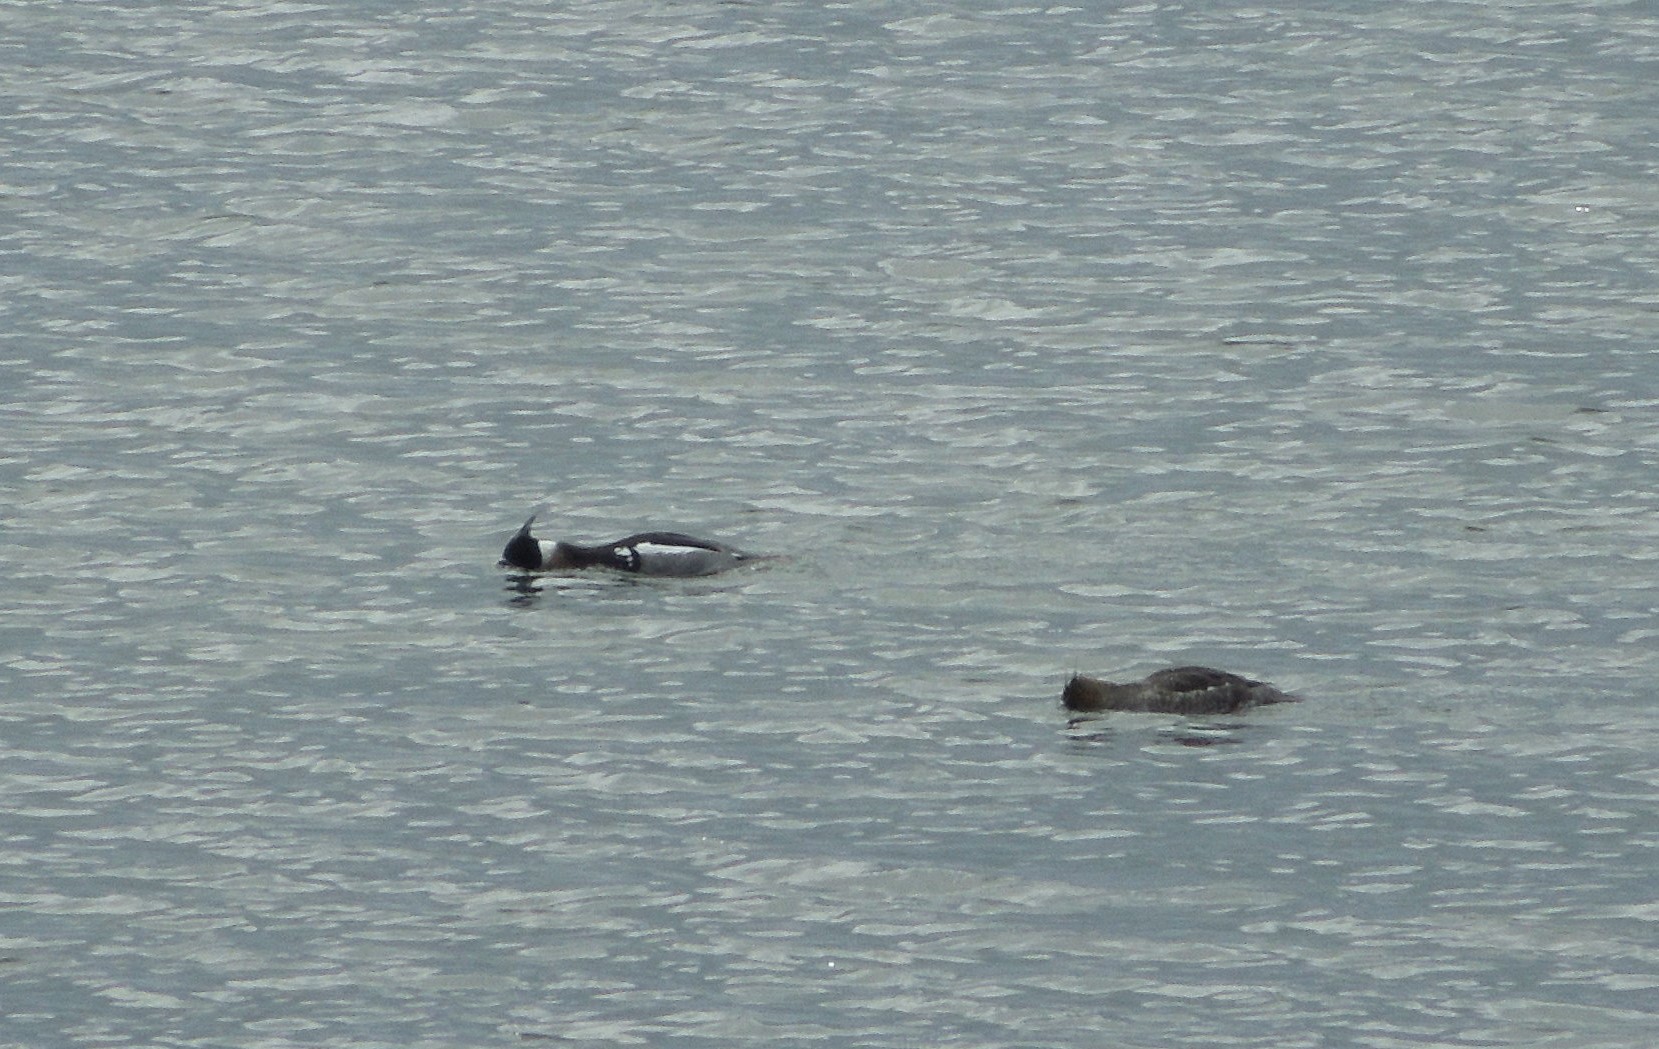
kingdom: Animalia
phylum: Chordata
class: Aves
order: Anseriformes
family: Anatidae
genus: Mergus
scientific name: Mergus serrator
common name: Red-breasted merganser
